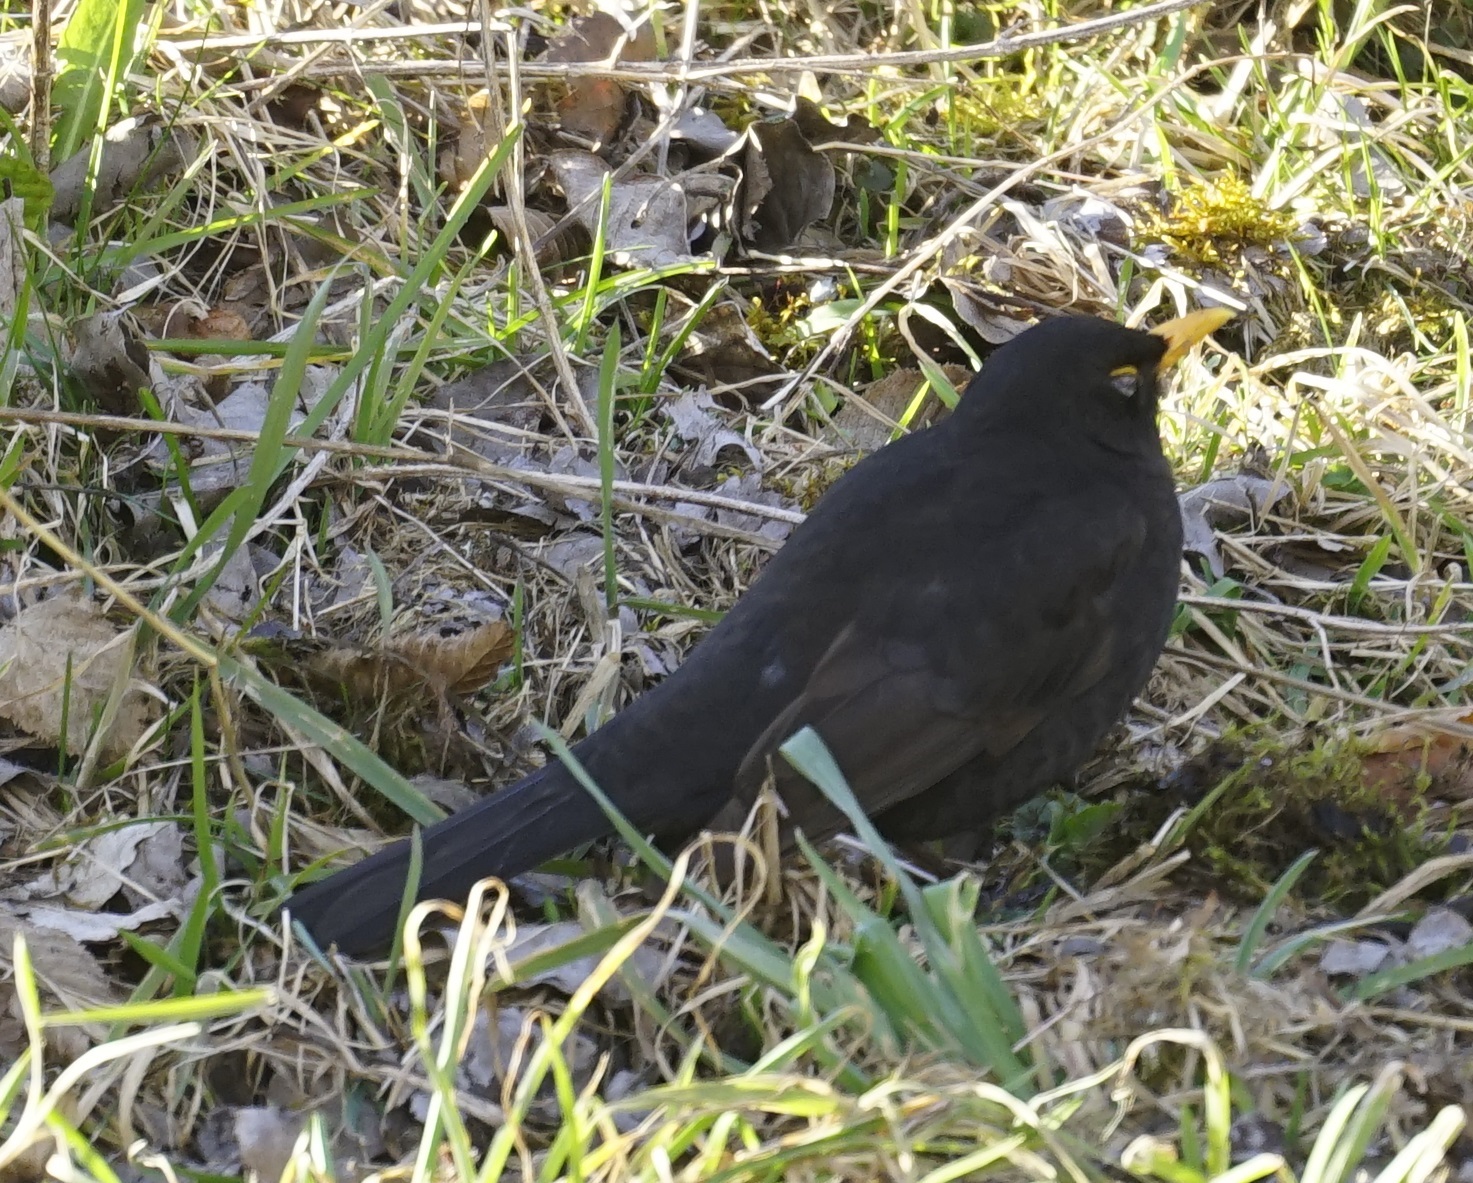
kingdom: Animalia
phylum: Chordata
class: Aves
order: Passeriformes
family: Turdidae
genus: Turdus
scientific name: Turdus merula
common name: Common blackbird
